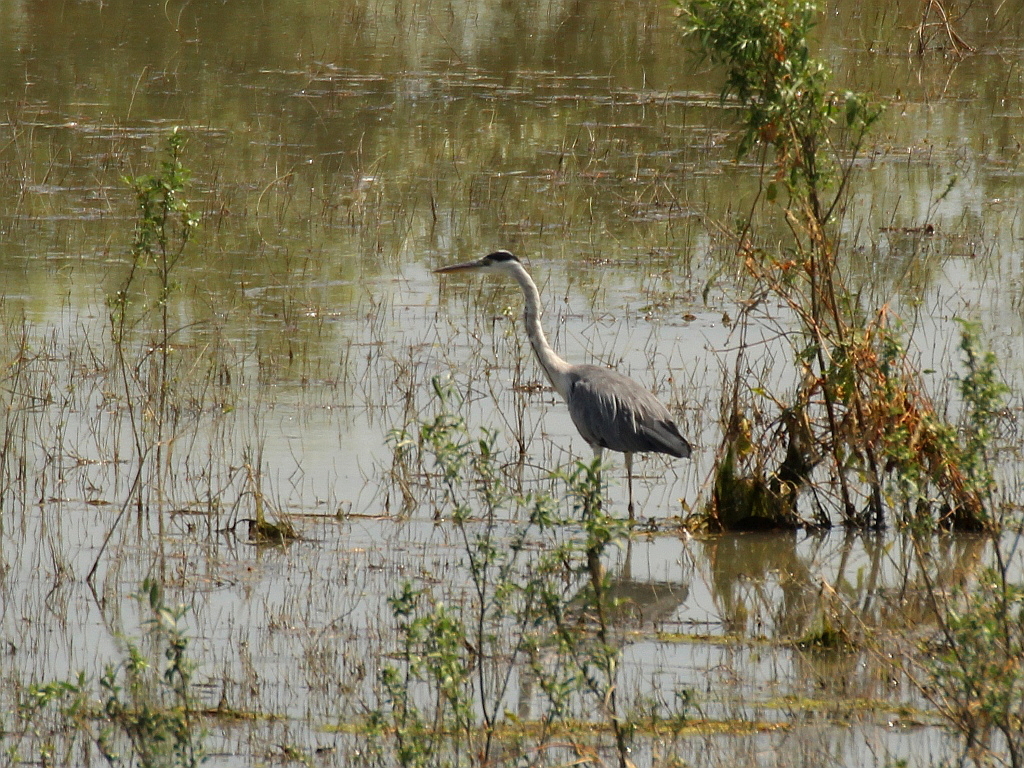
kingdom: Animalia
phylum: Chordata
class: Aves
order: Pelecaniformes
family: Ardeidae
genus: Ardea
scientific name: Ardea cinerea
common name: Grey heron
